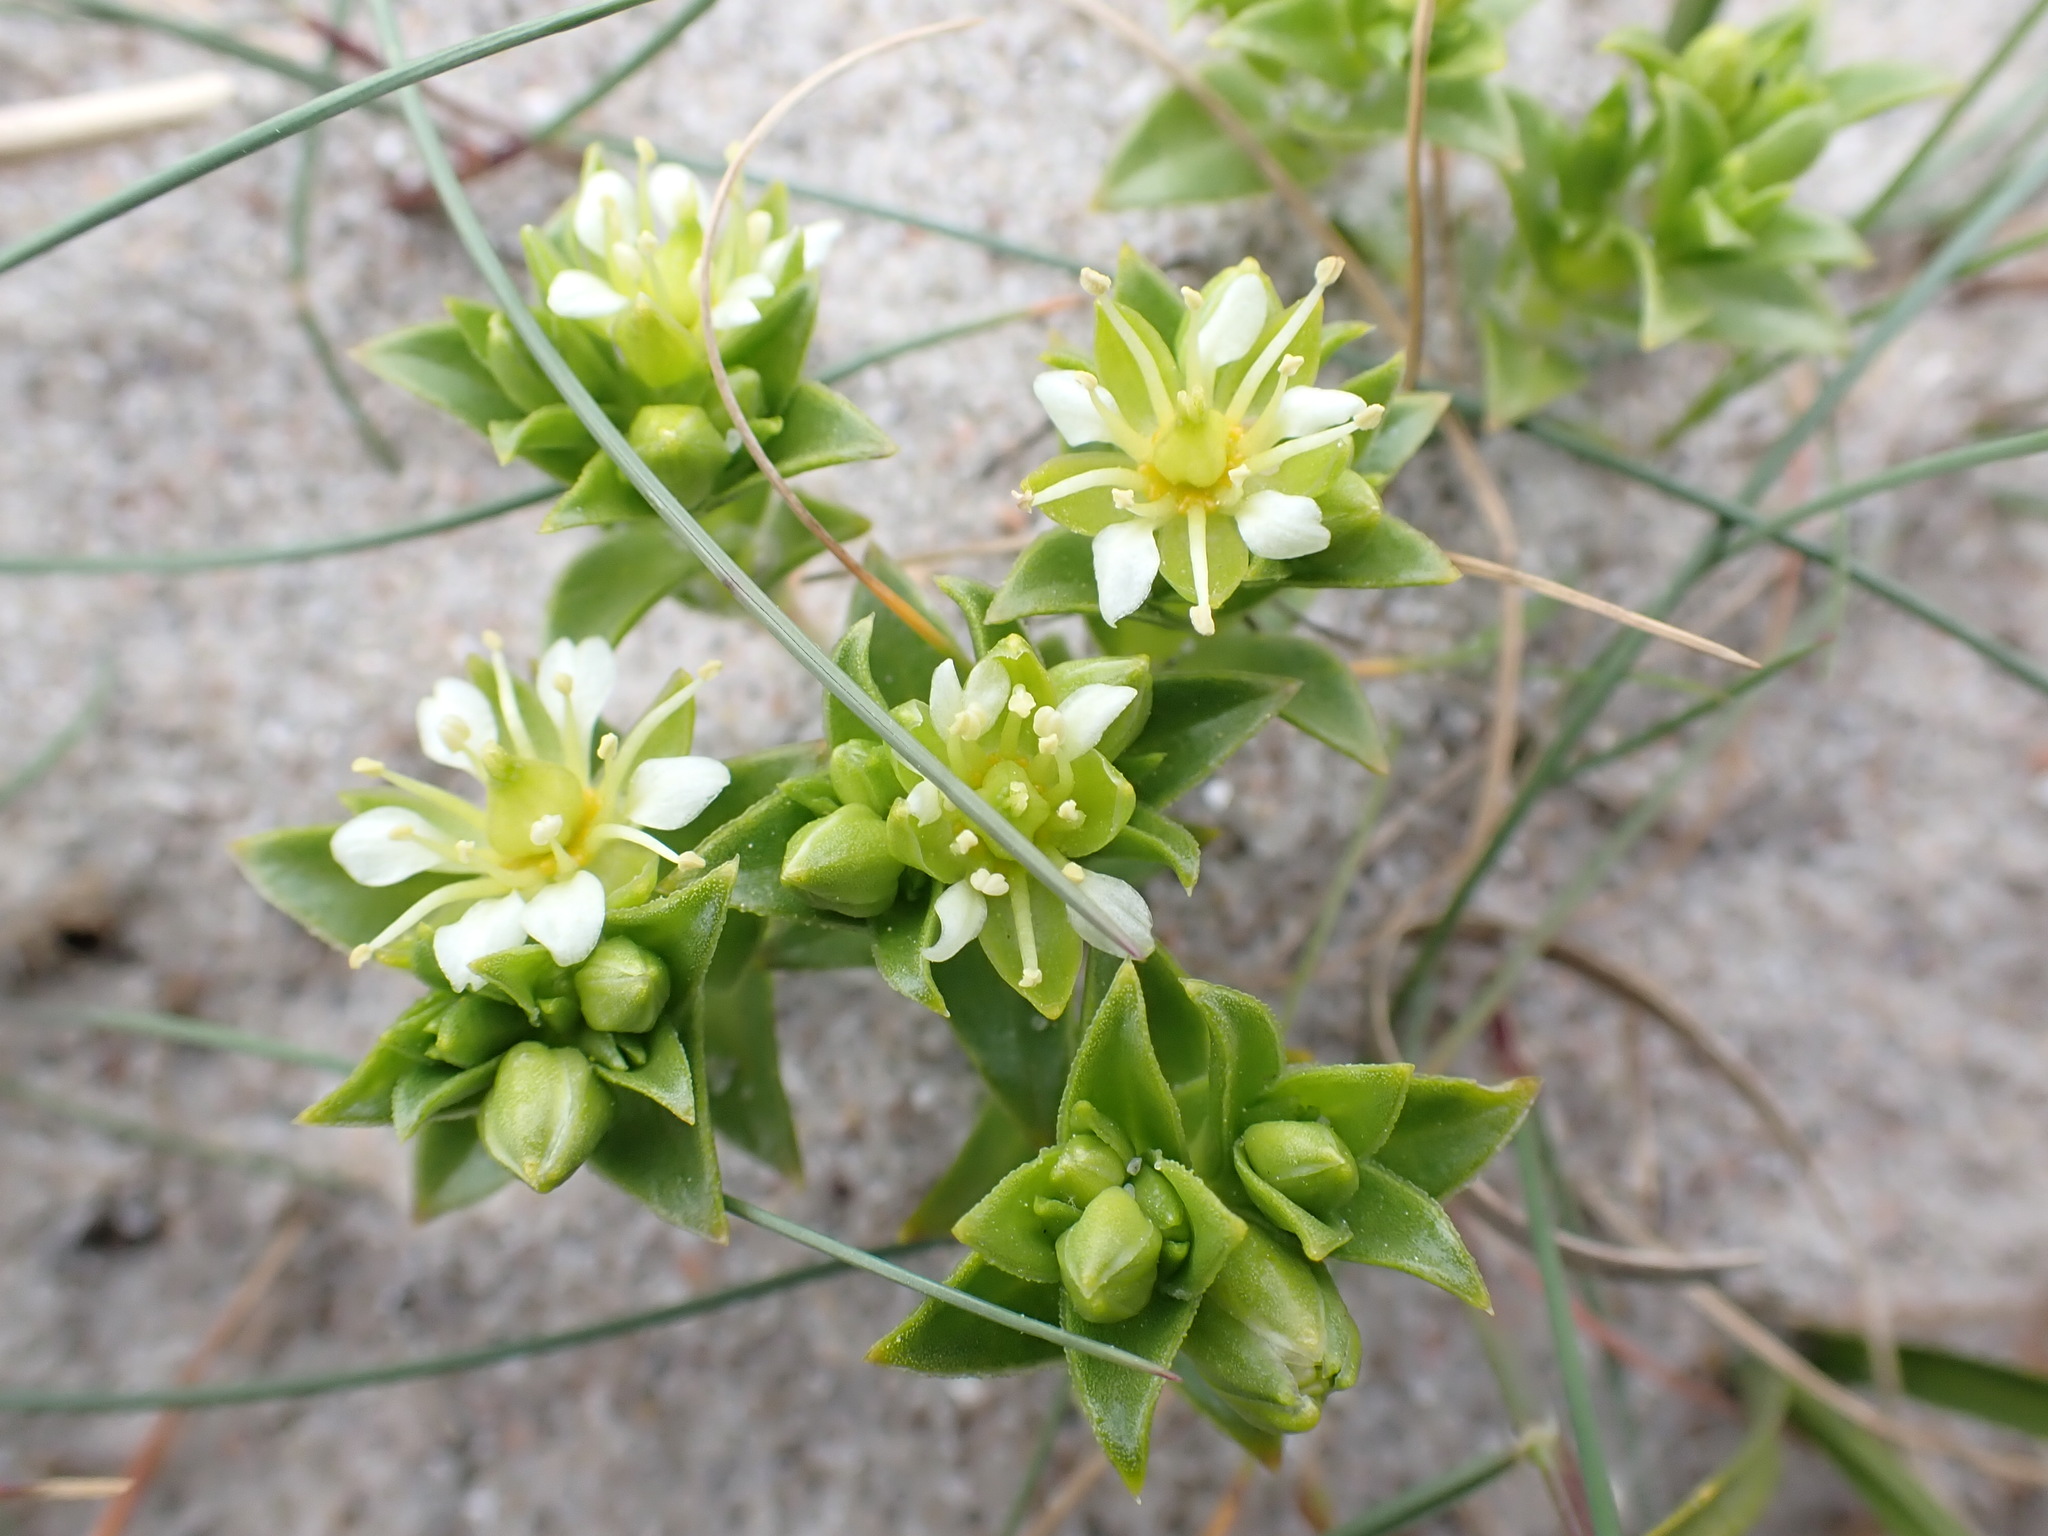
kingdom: Plantae
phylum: Tracheophyta
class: Magnoliopsida
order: Caryophyllales
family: Caryophyllaceae
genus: Honckenya
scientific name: Honckenya peploides
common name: Sea sandwort
